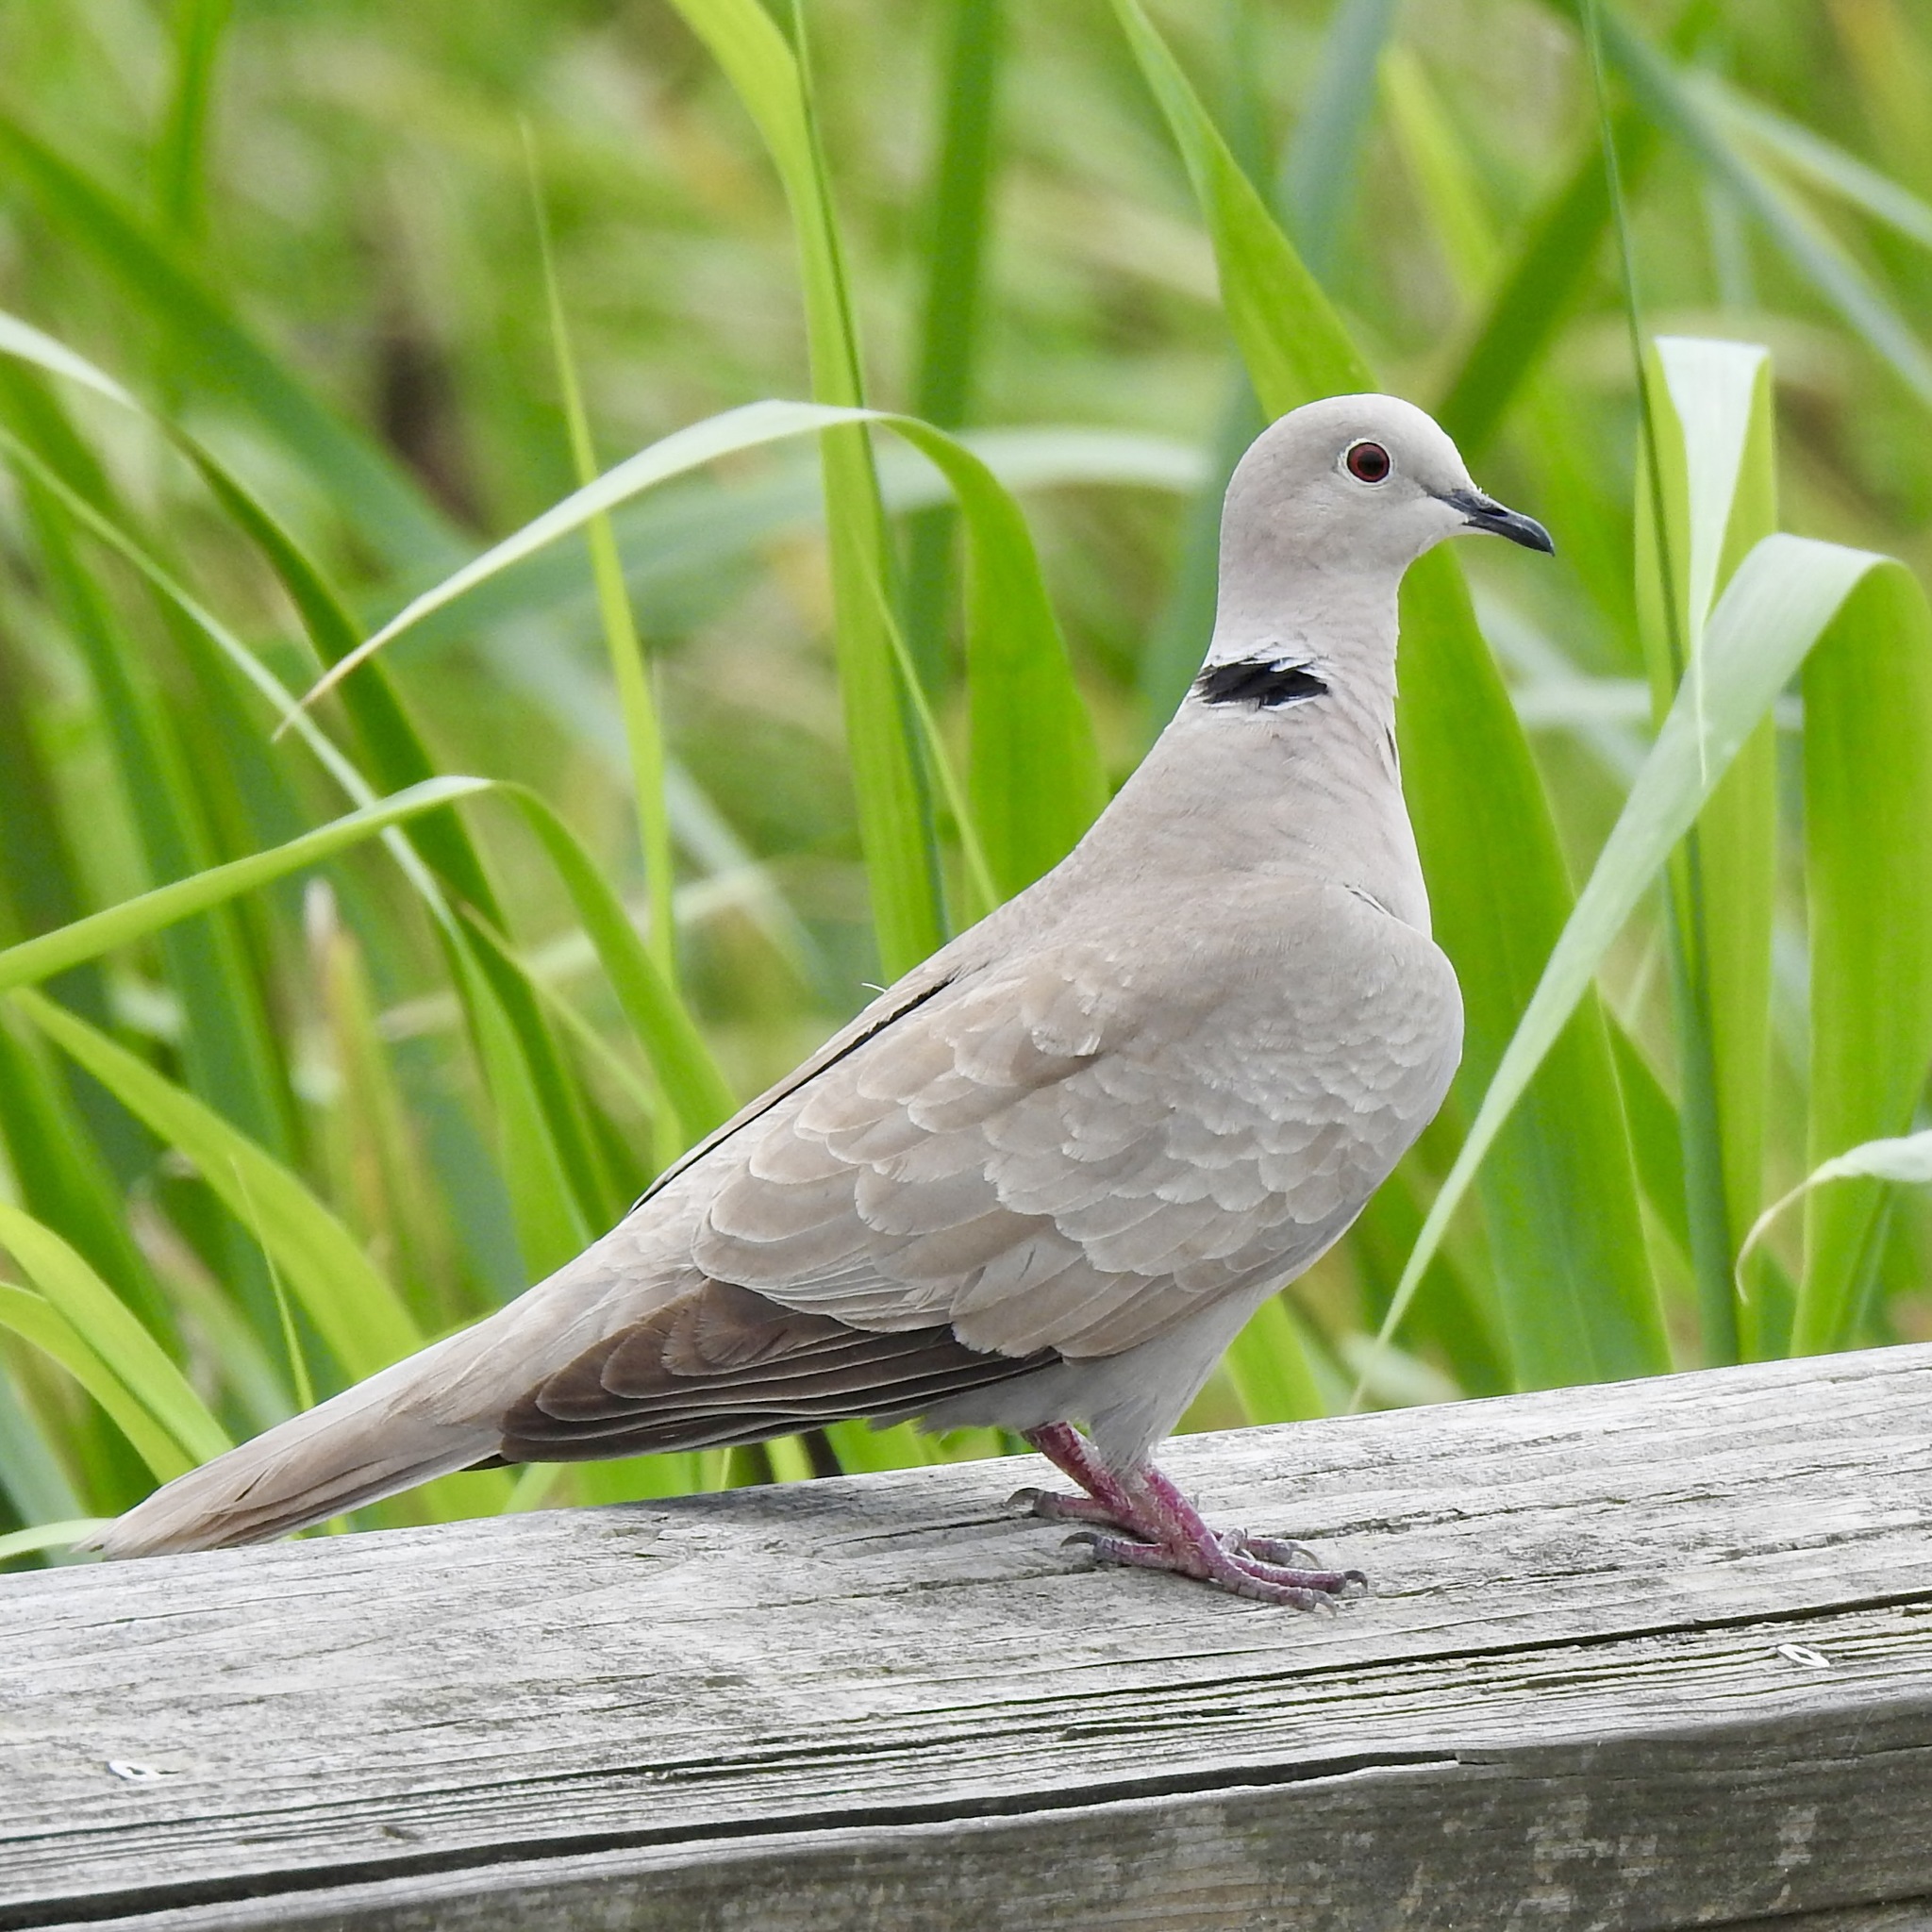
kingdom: Animalia
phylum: Chordata
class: Aves
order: Columbiformes
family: Columbidae
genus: Streptopelia
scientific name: Streptopelia decaocto
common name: Eurasian collared dove
